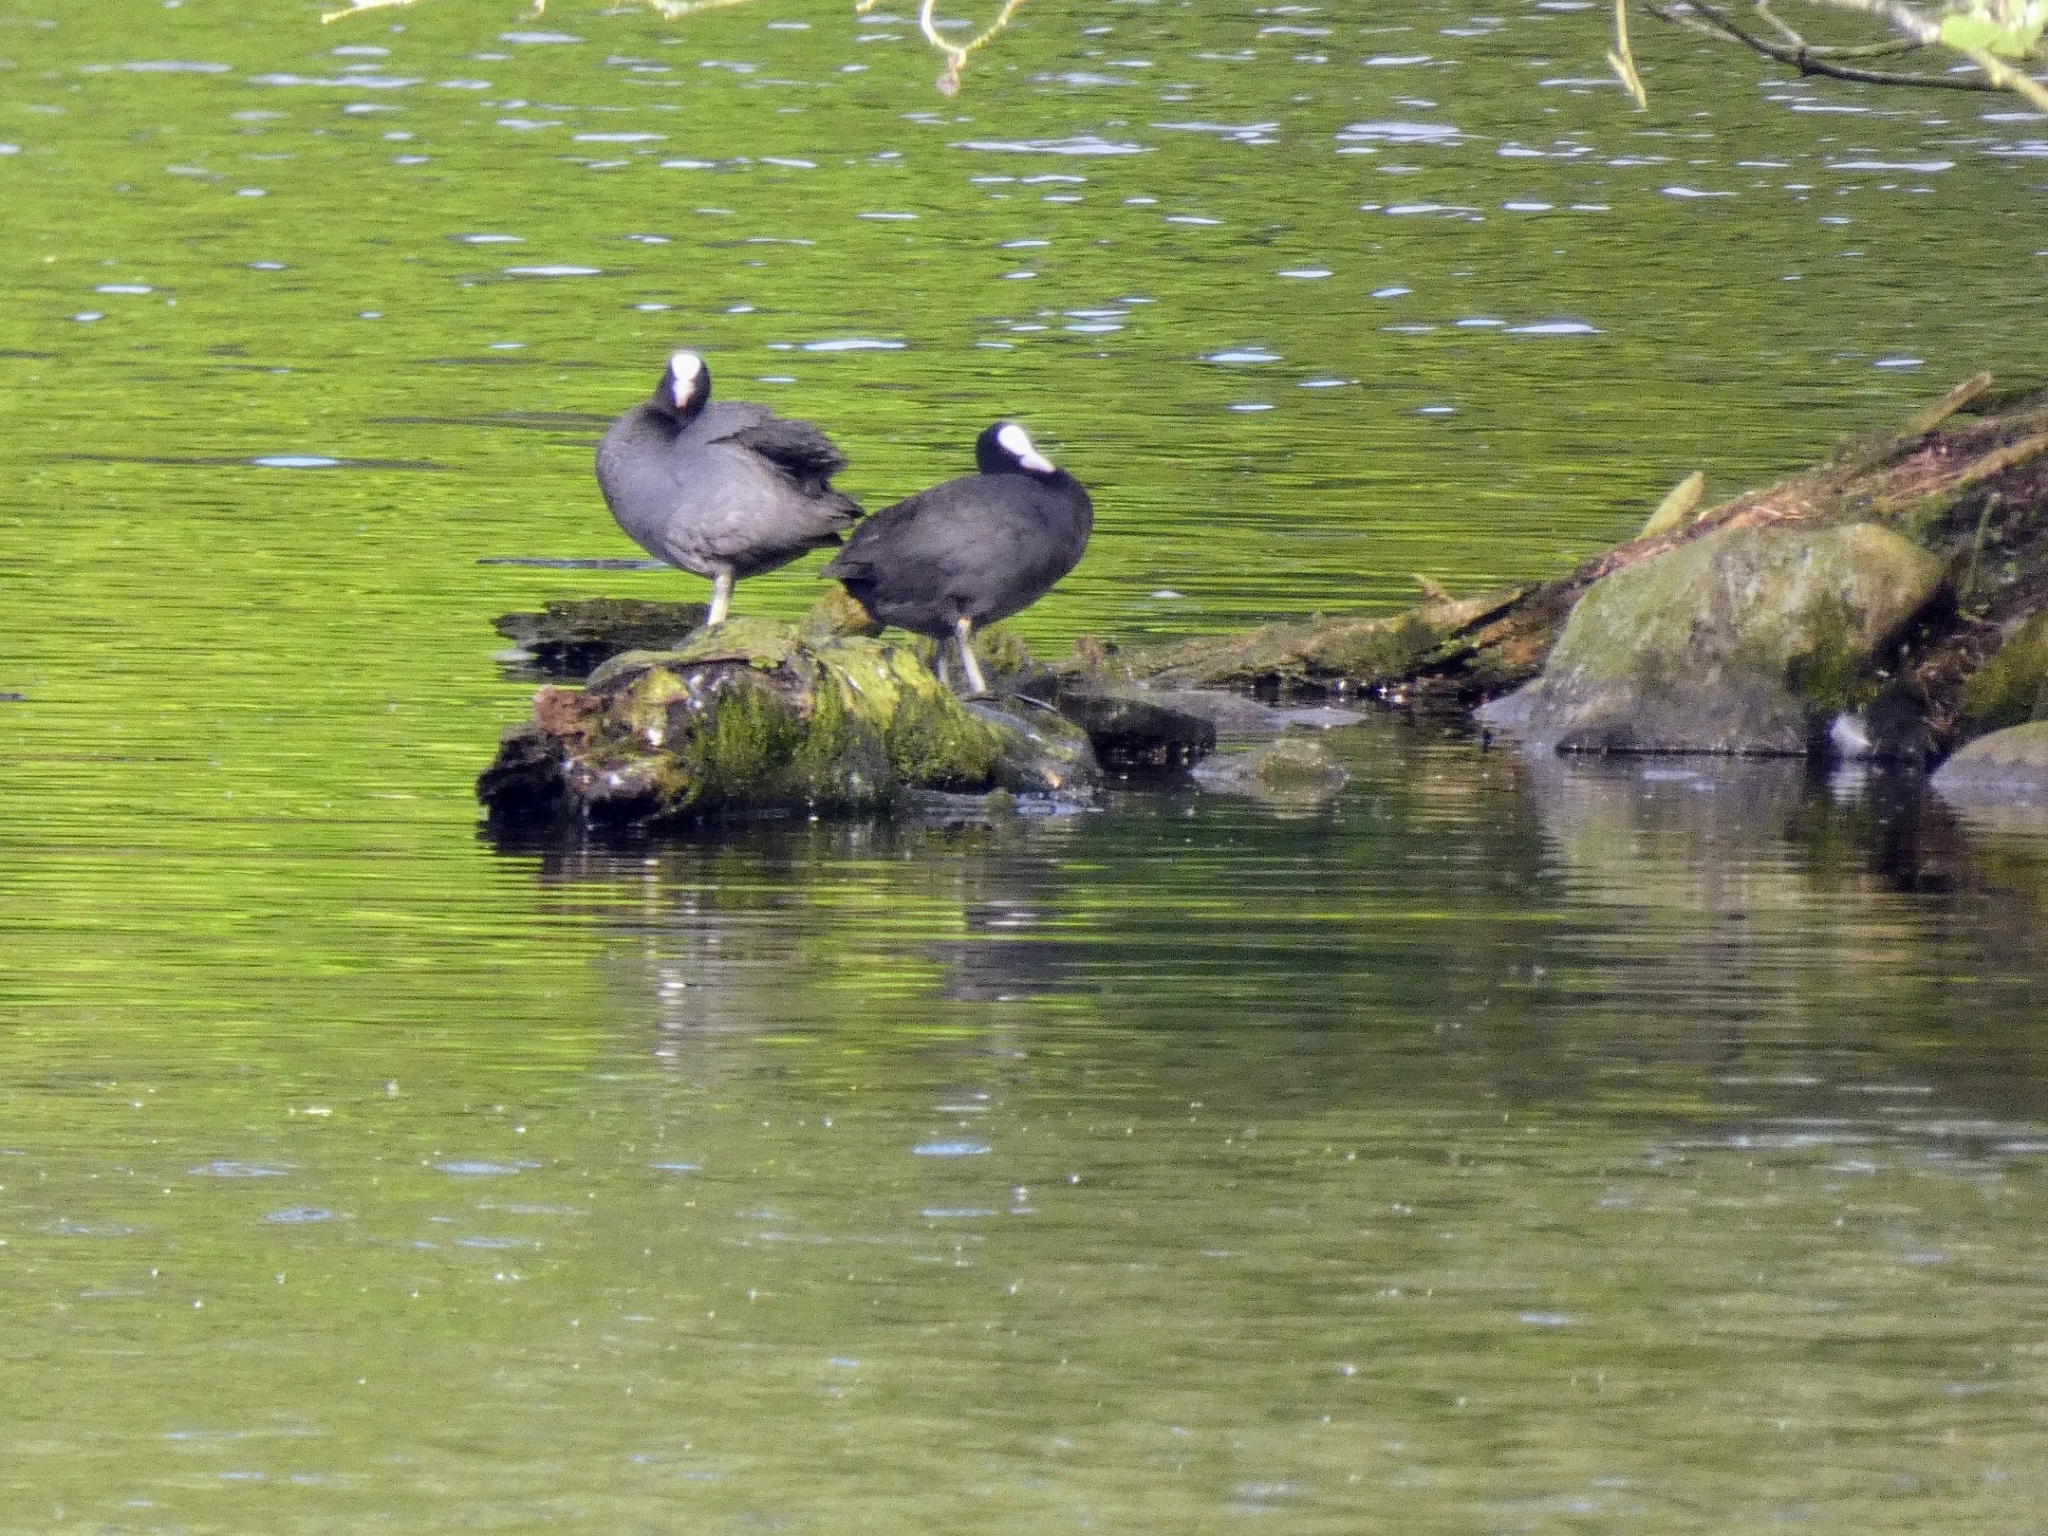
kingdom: Animalia
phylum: Chordata
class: Aves
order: Gruiformes
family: Rallidae
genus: Fulica
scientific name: Fulica atra
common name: Eurasian coot
